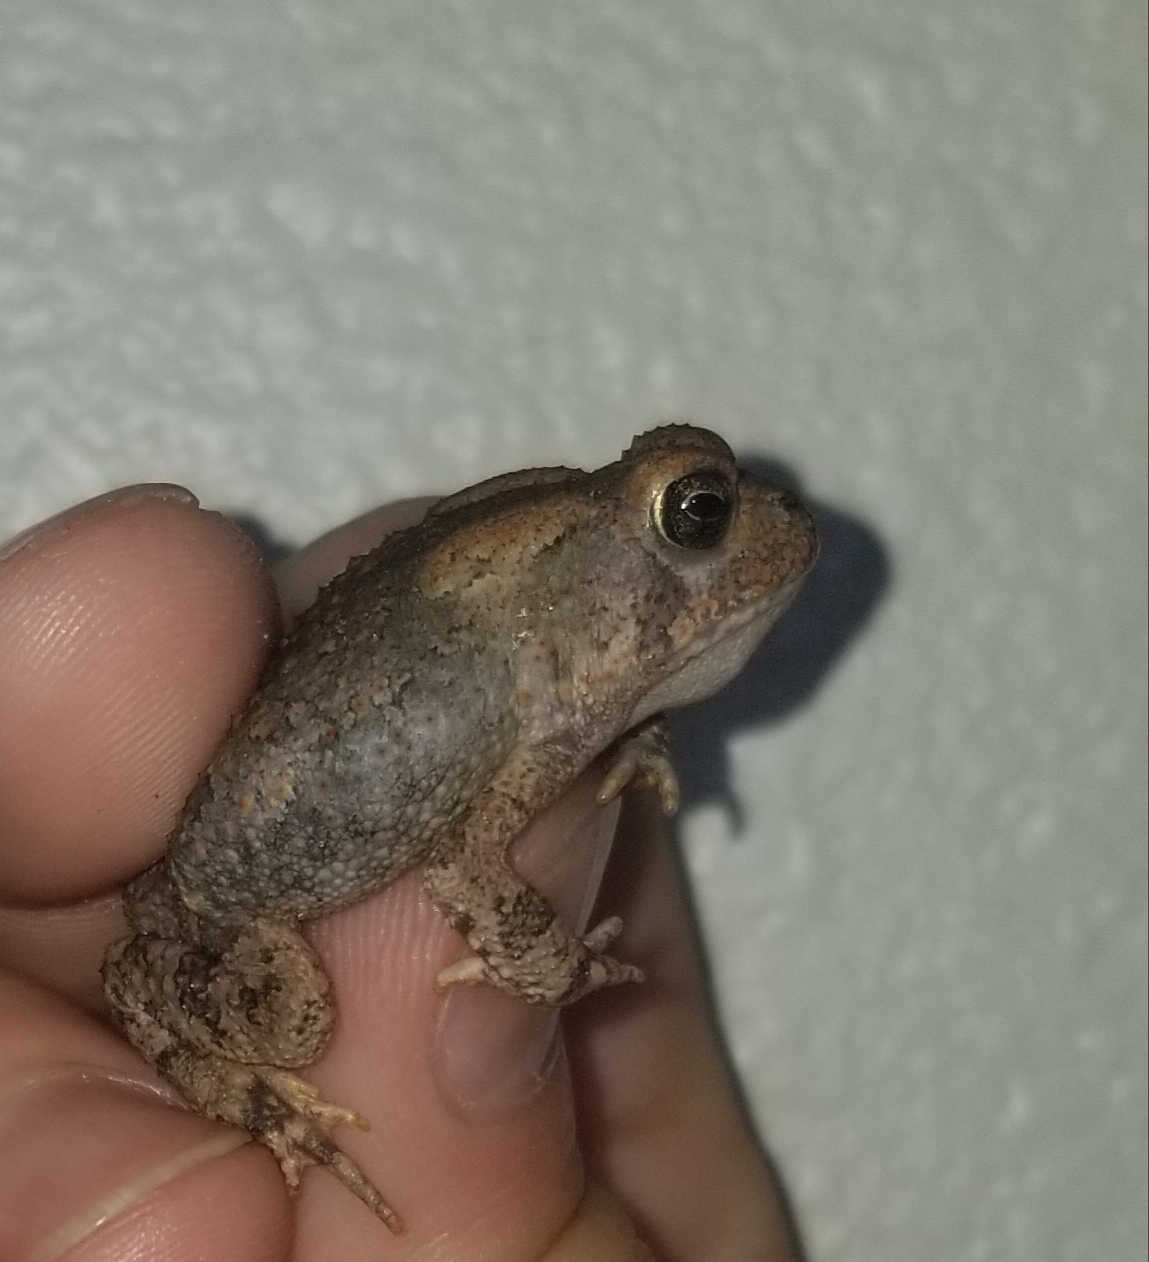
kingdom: Animalia
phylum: Chordata
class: Amphibia
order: Anura
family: Bufonidae
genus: Anaxyrus
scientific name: Anaxyrus fowleri
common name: Fowler's toad
